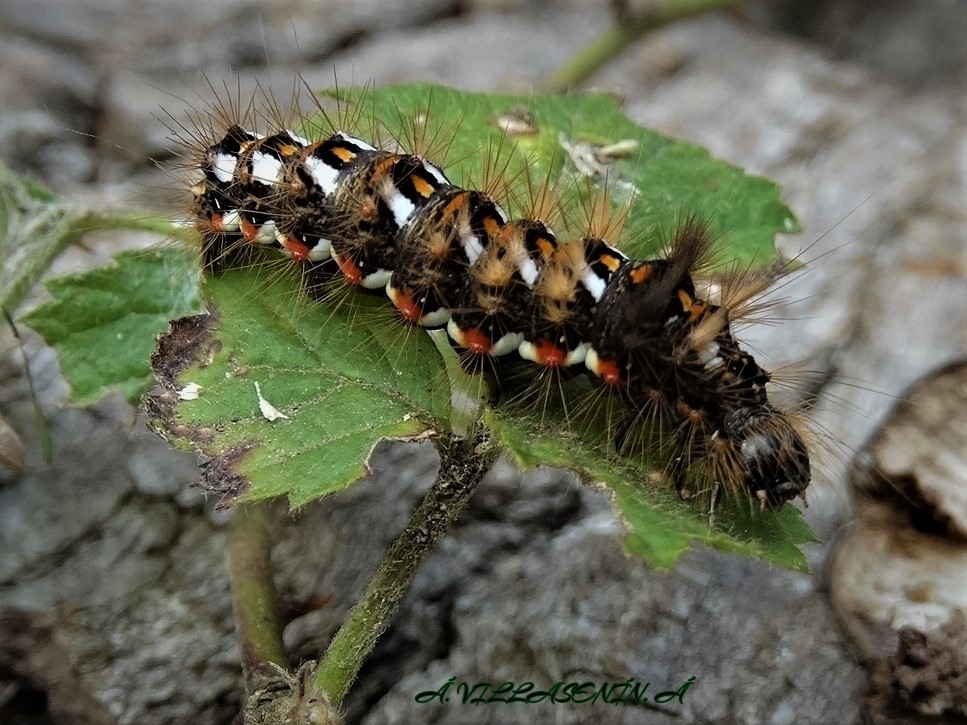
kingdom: Animalia
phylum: Arthropoda
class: Insecta
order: Lepidoptera
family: Noctuidae
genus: Acronicta
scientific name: Acronicta rumicis
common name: Knot grass
